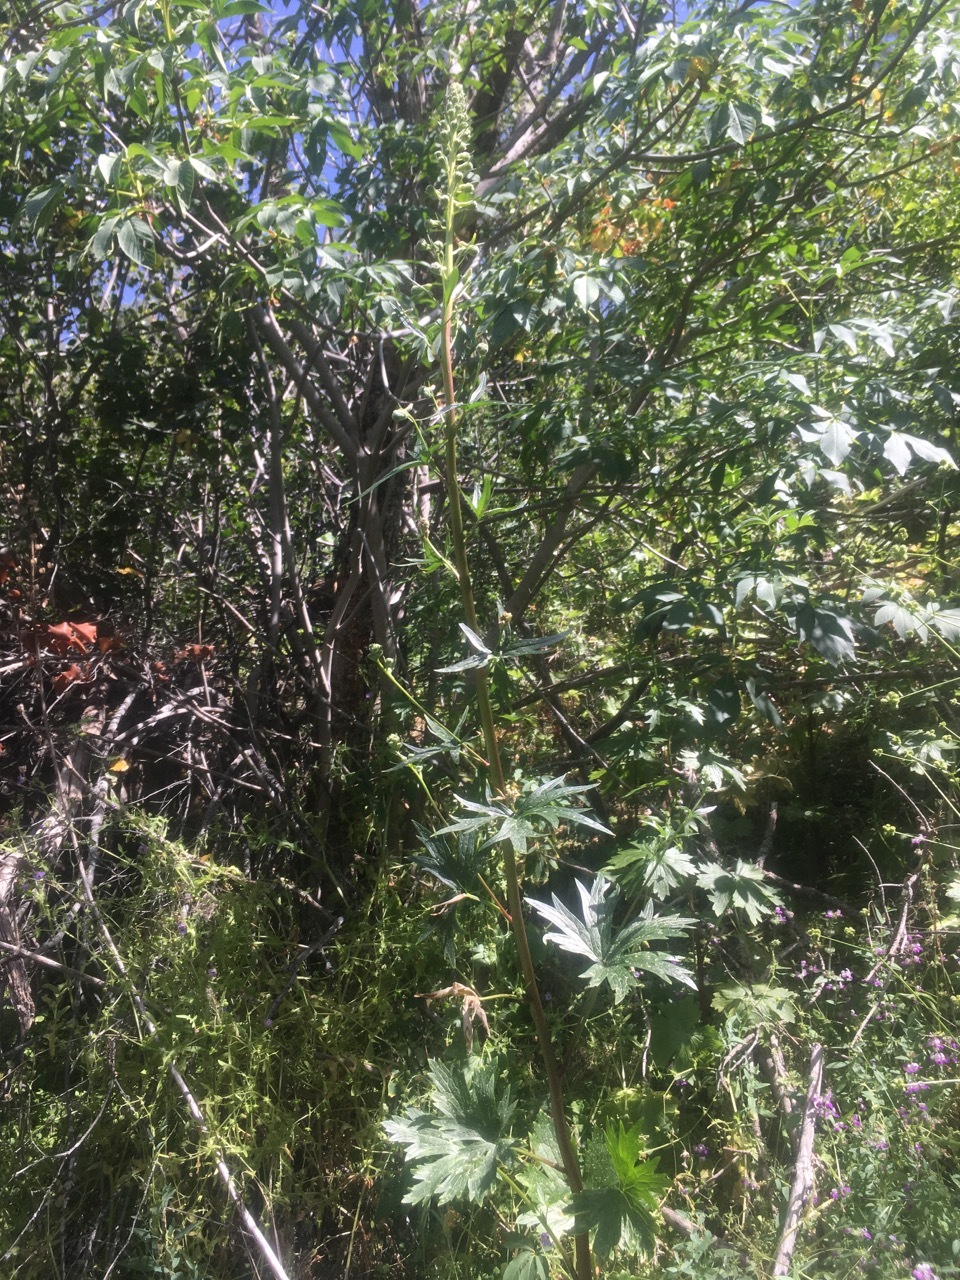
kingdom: Plantae
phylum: Tracheophyta
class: Magnoliopsida
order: Ranunculales
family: Ranunculaceae
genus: Delphinium
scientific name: Delphinium californicum
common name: California larkspur
